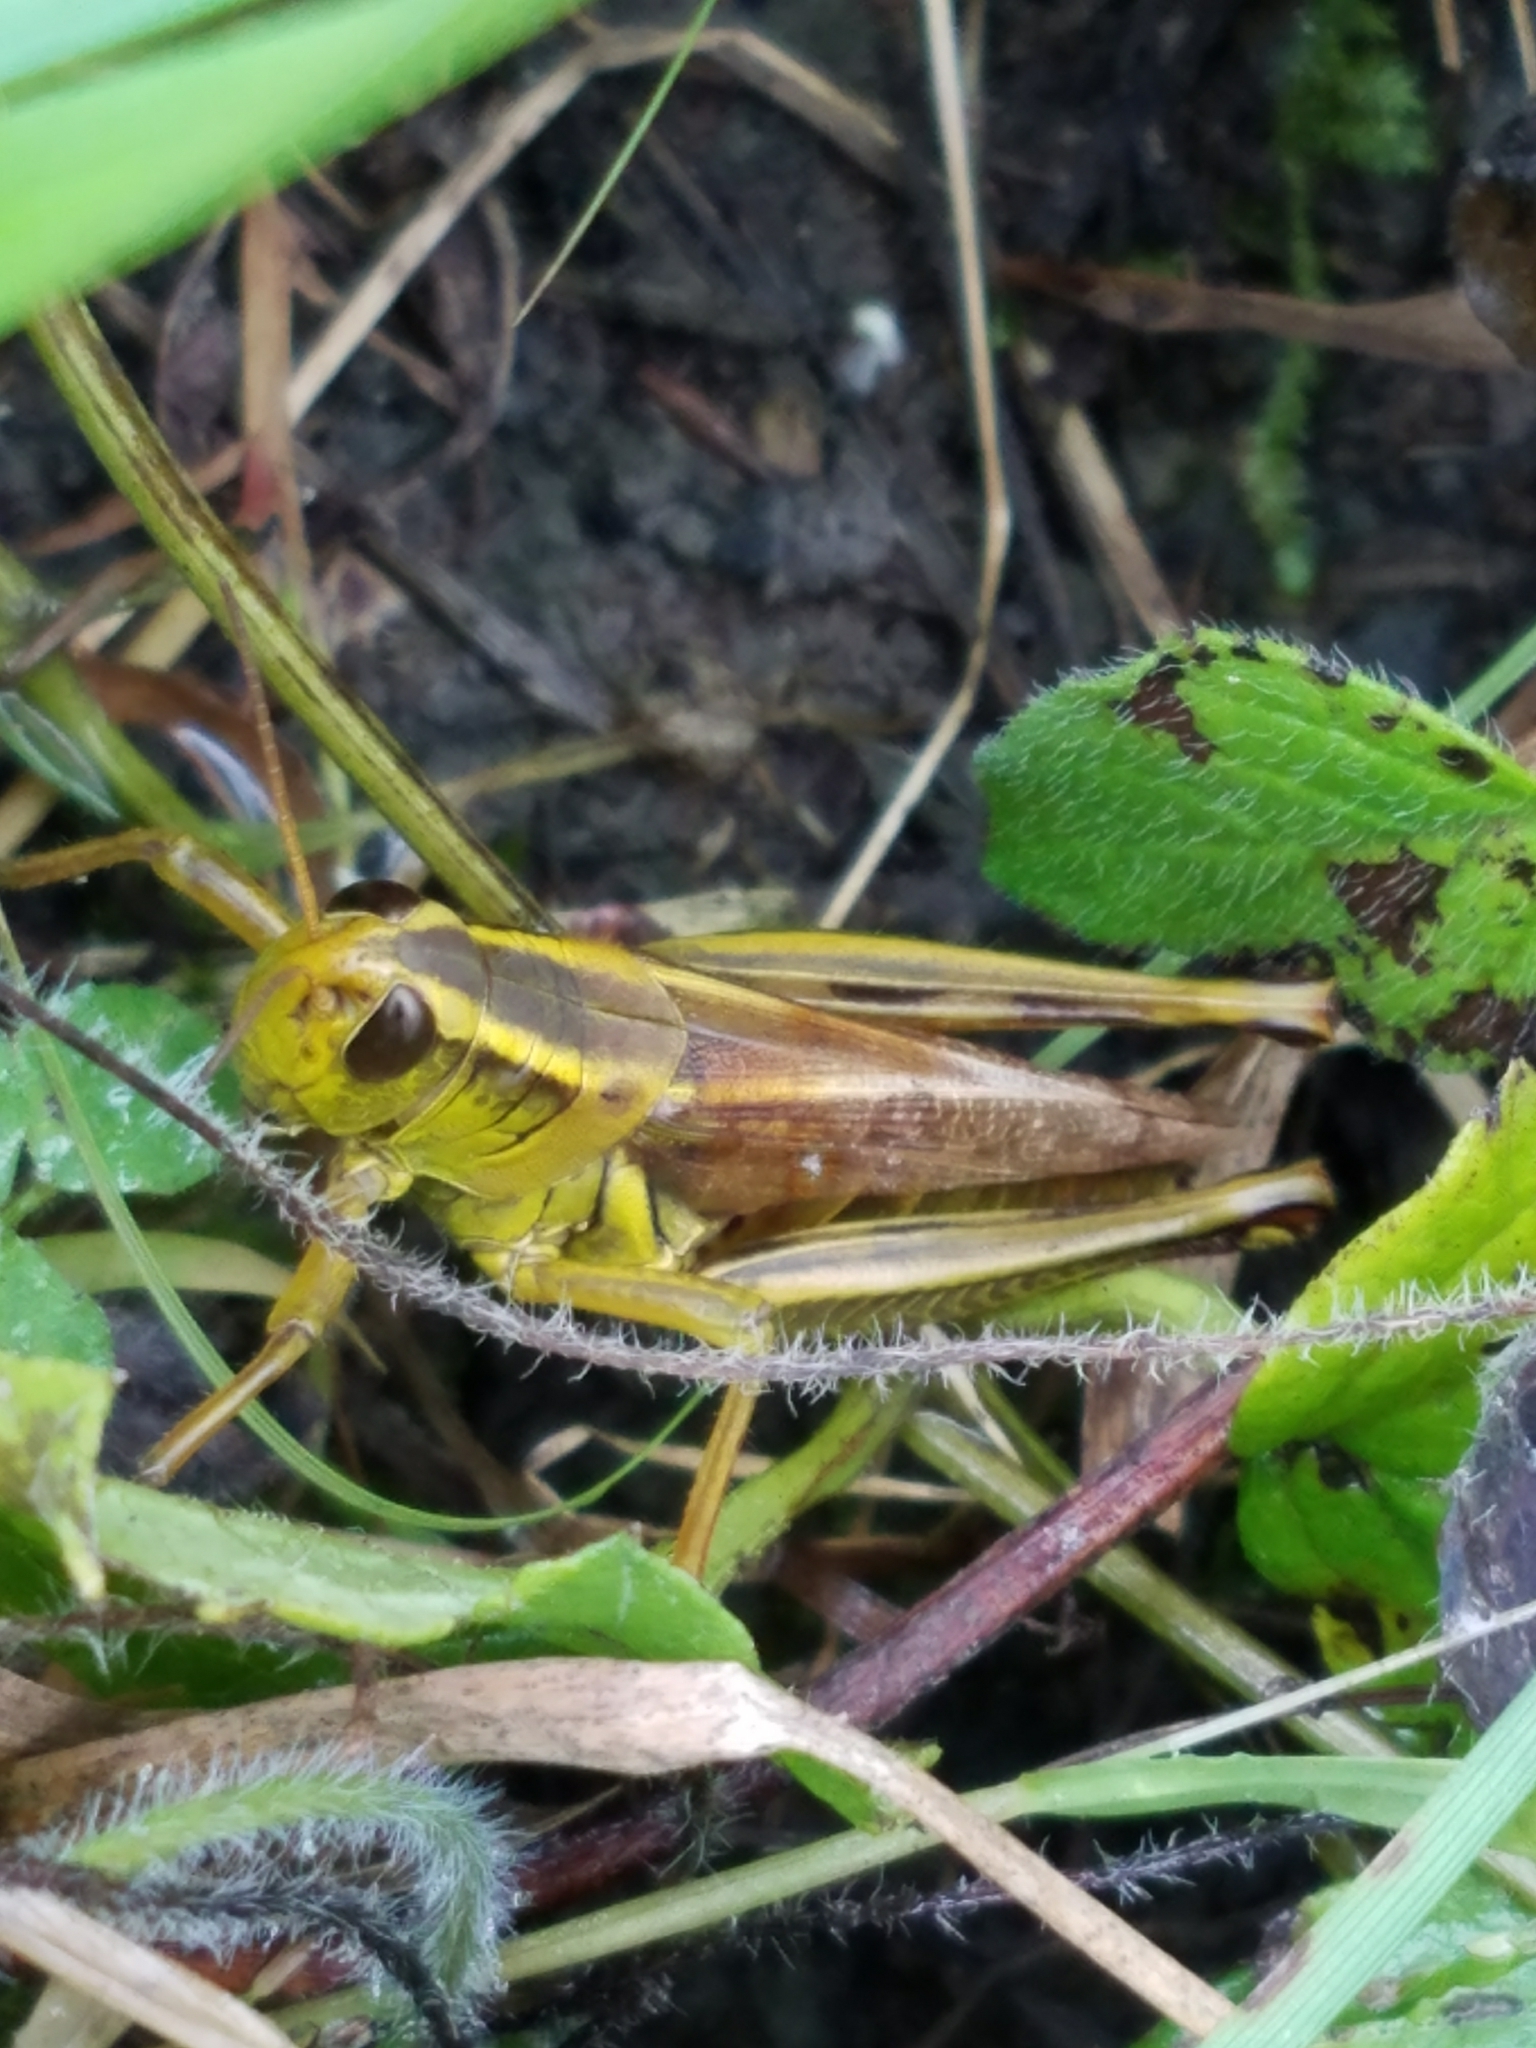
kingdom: Animalia
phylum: Arthropoda
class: Insecta
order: Orthoptera
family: Acrididae
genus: Melanoplus
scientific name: Melanoplus bivittatus
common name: Two-striped grasshopper
